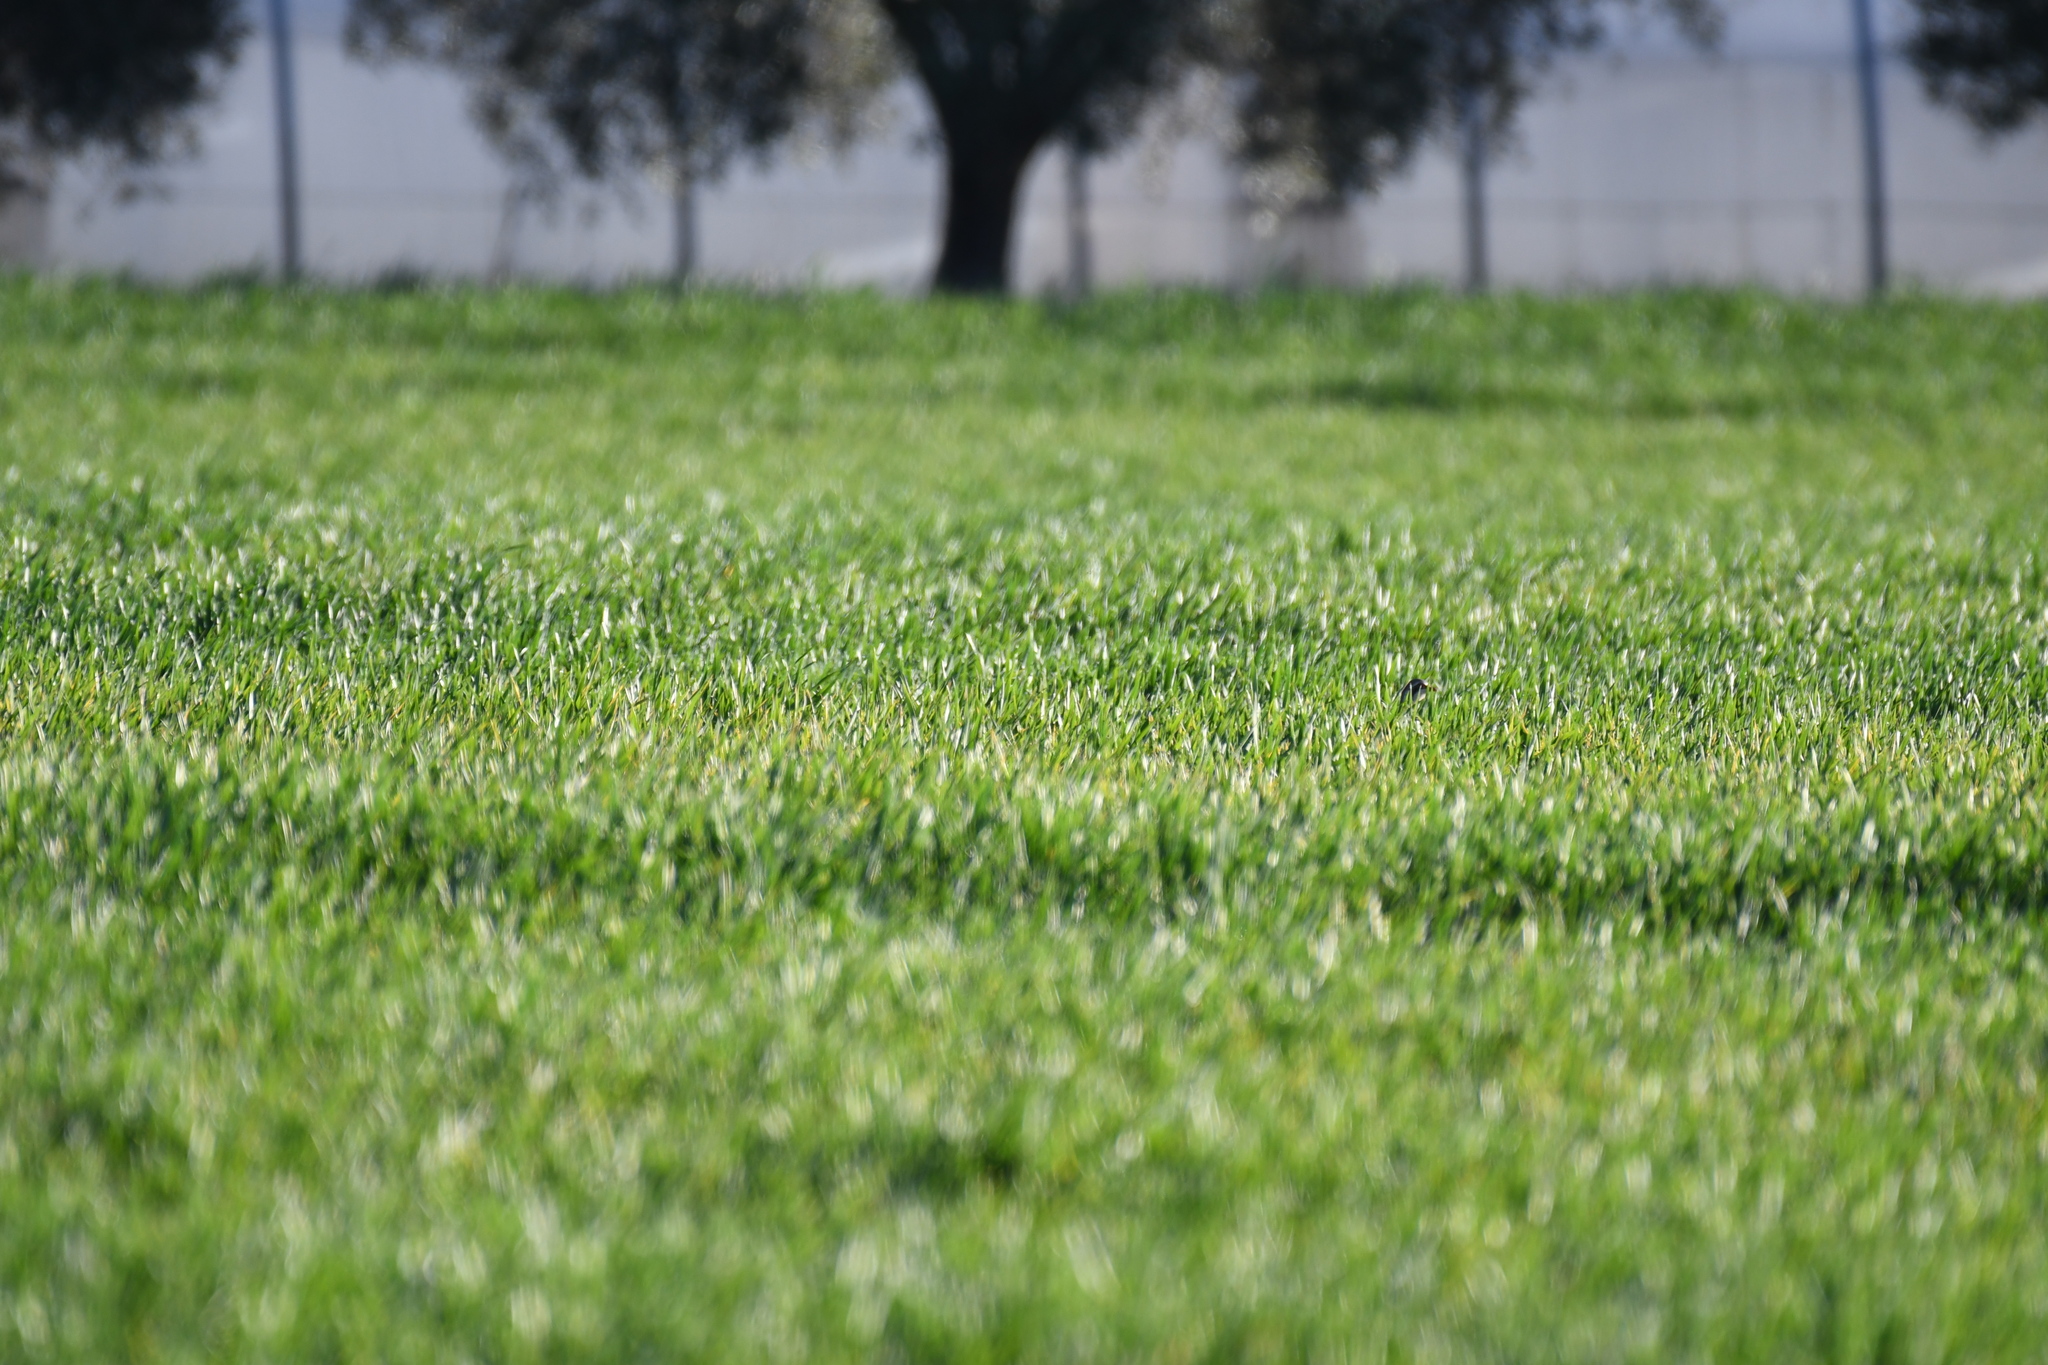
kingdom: Animalia
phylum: Chordata
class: Aves
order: Galliformes
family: Phasianidae
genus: Alectoris
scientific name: Alectoris rufa
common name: Red-legged partridge
